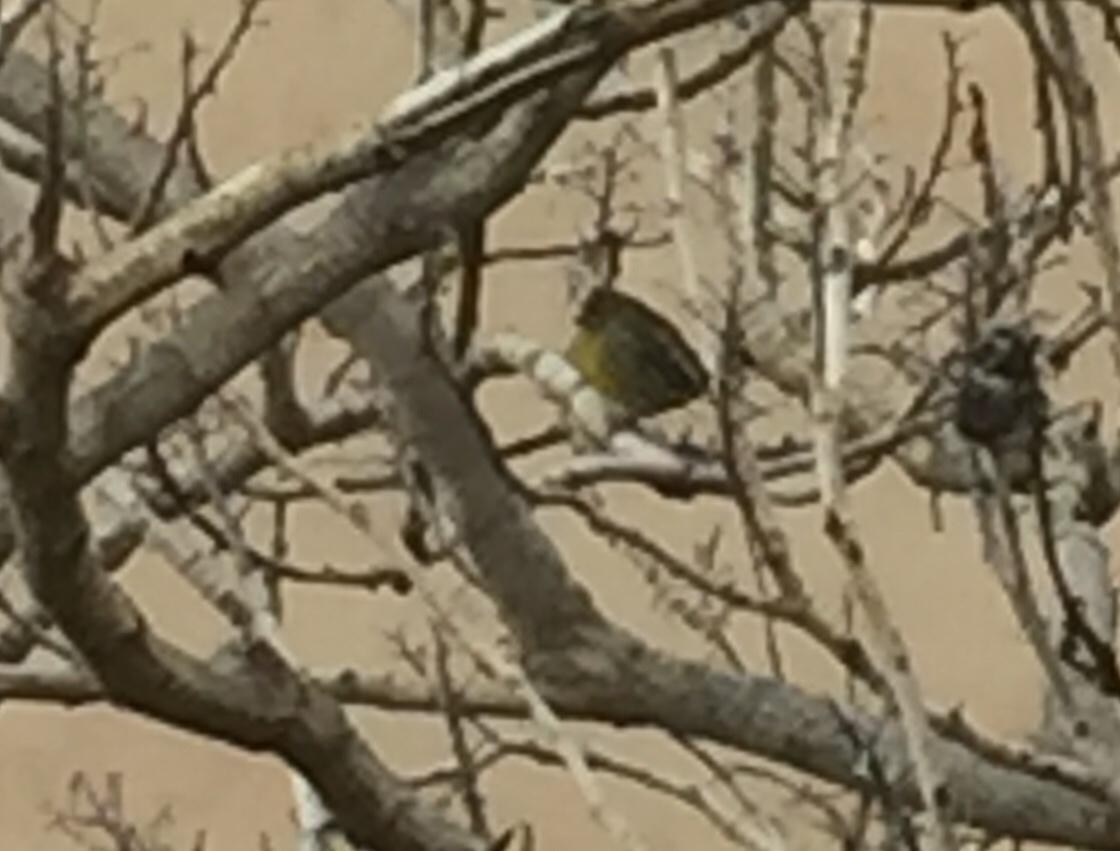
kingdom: Animalia
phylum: Chordata
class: Aves
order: Passeriformes
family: Fringillidae
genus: Serinus
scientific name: Serinus canaria
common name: Atlantic canary
